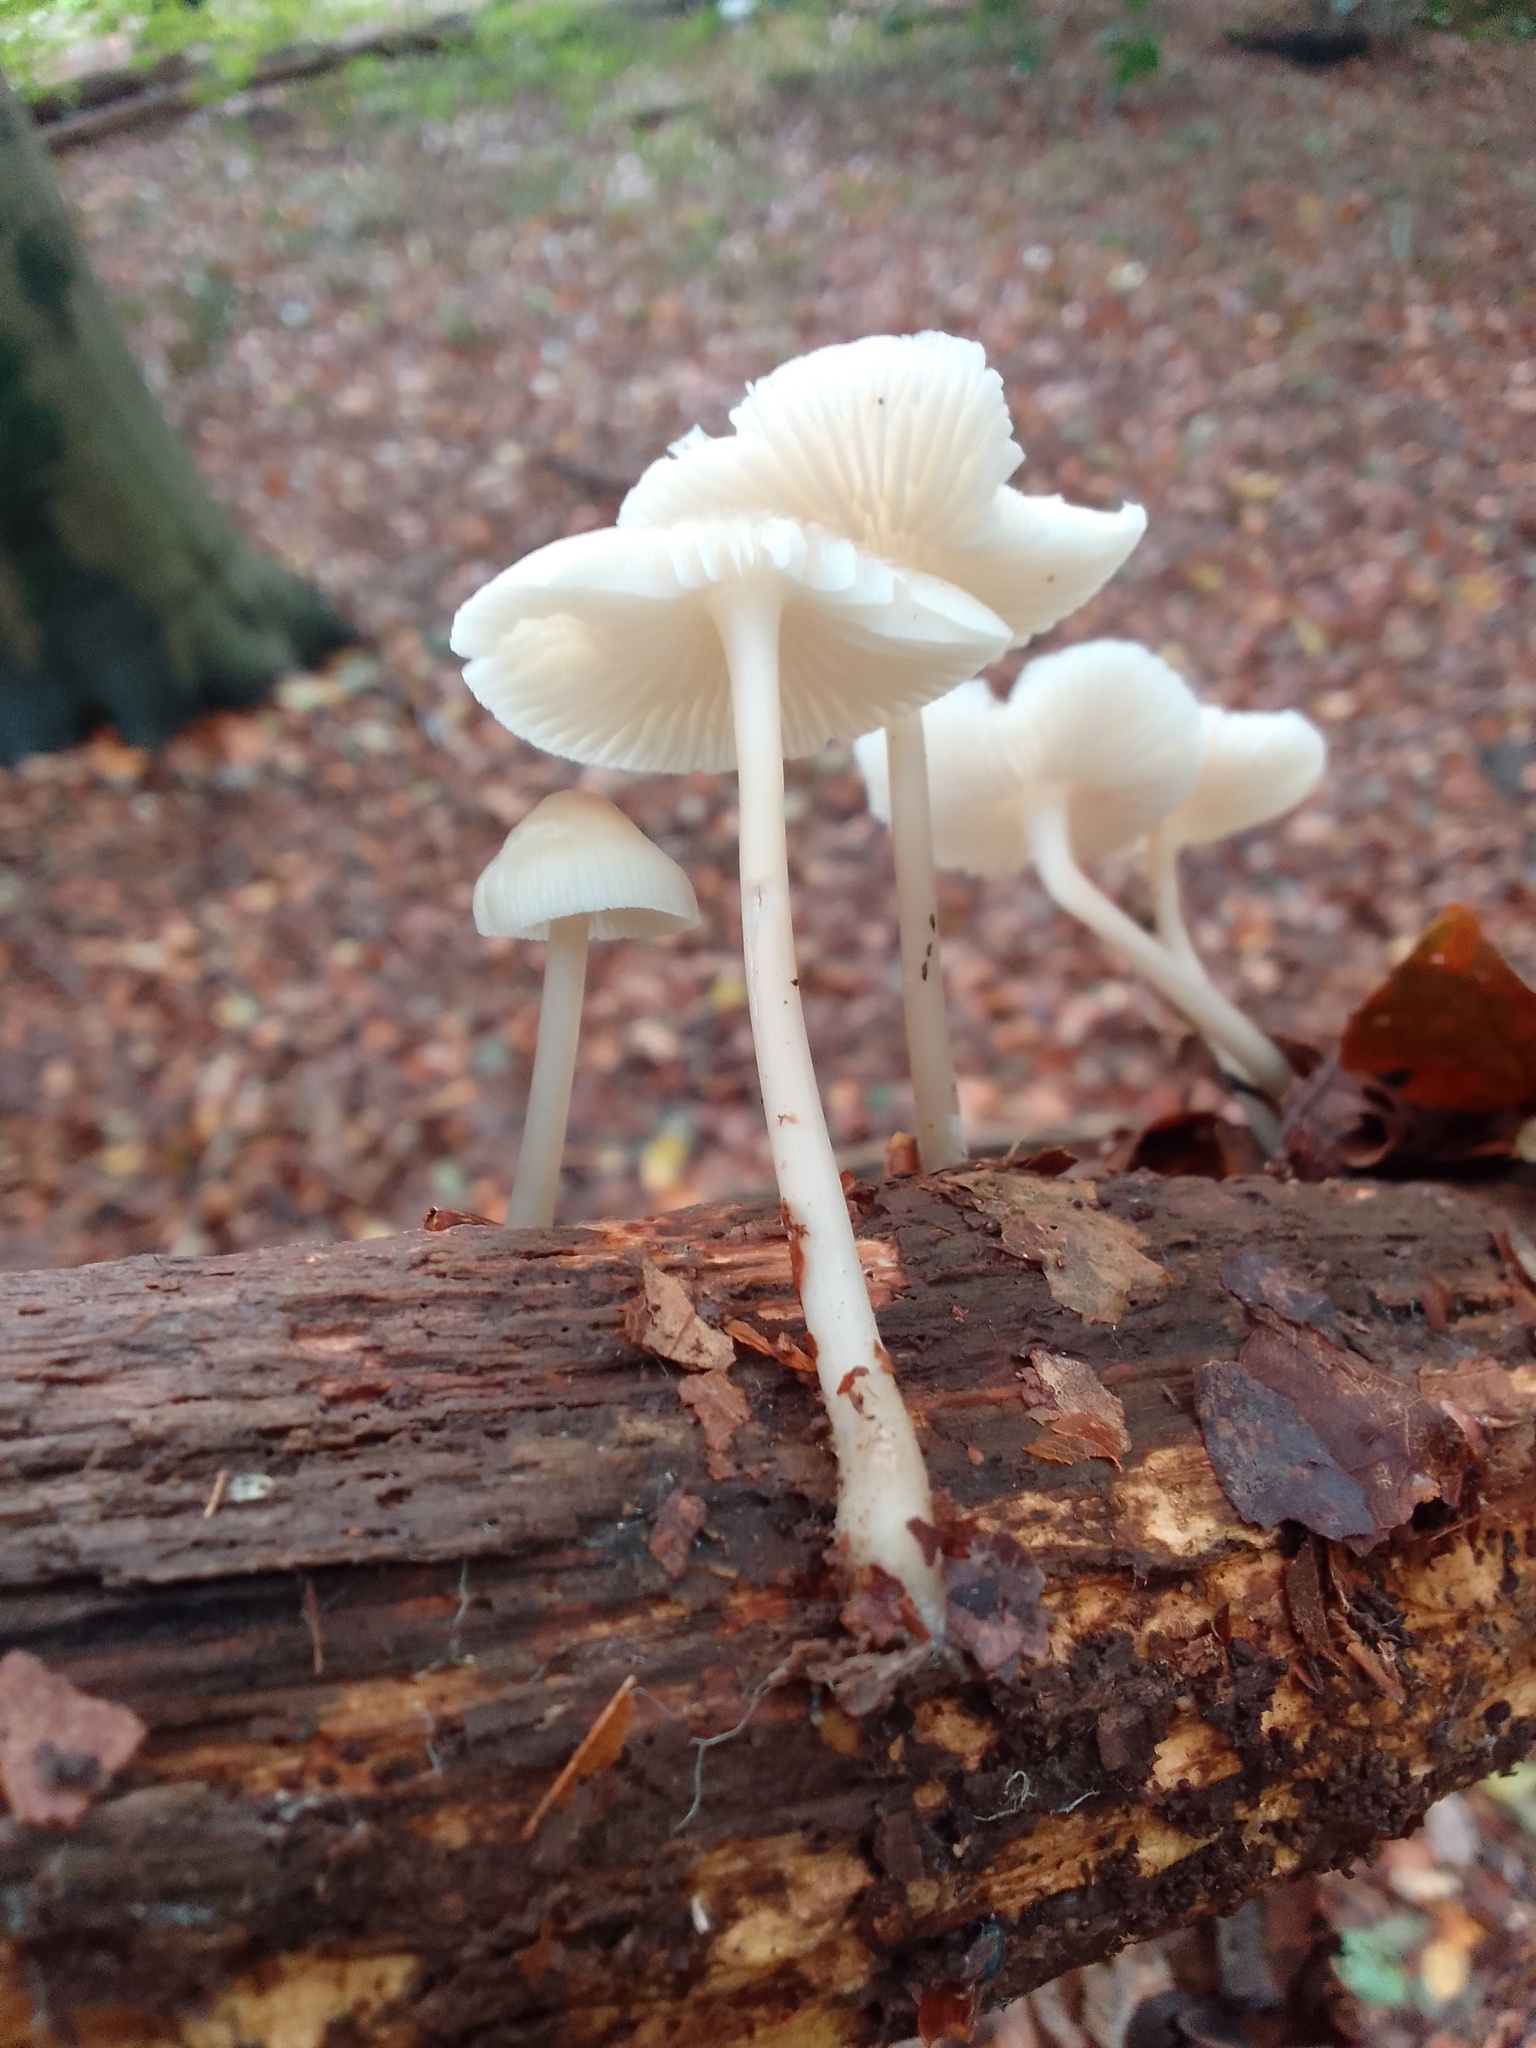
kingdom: Fungi
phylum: Basidiomycota
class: Agaricomycetes
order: Agaricales
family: Mycenaceae
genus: Mycena
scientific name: Mycena galericulata
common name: Bonnet mycena
